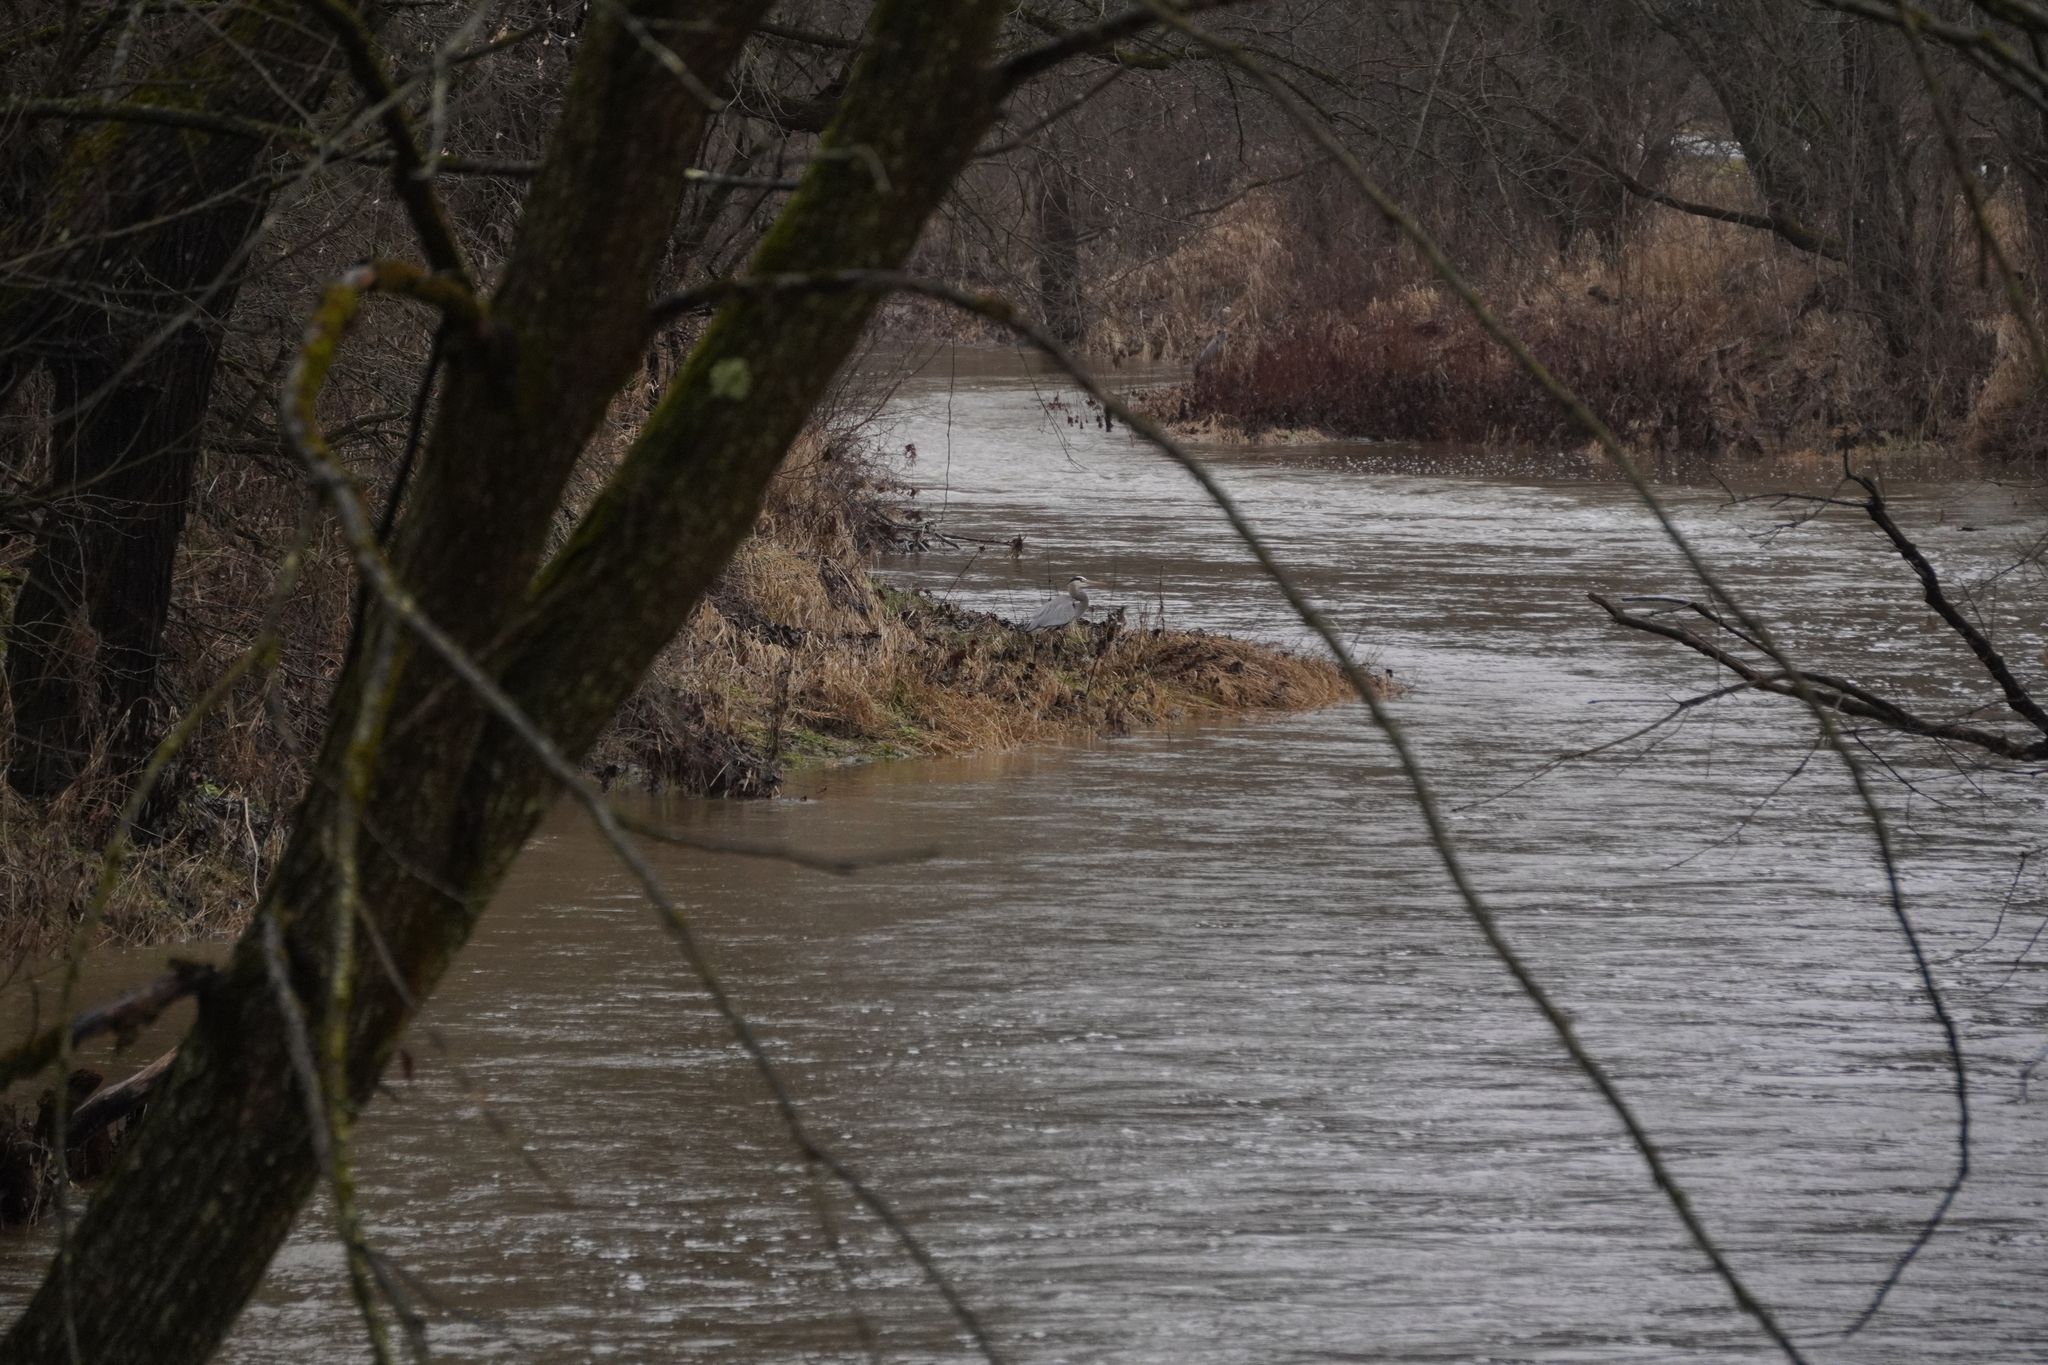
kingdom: Animalia
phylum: Chordata
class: Aves
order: Pelecaniformes
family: Ardeidae
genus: Ardea
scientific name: Ardea herodias
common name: Great blue heron
